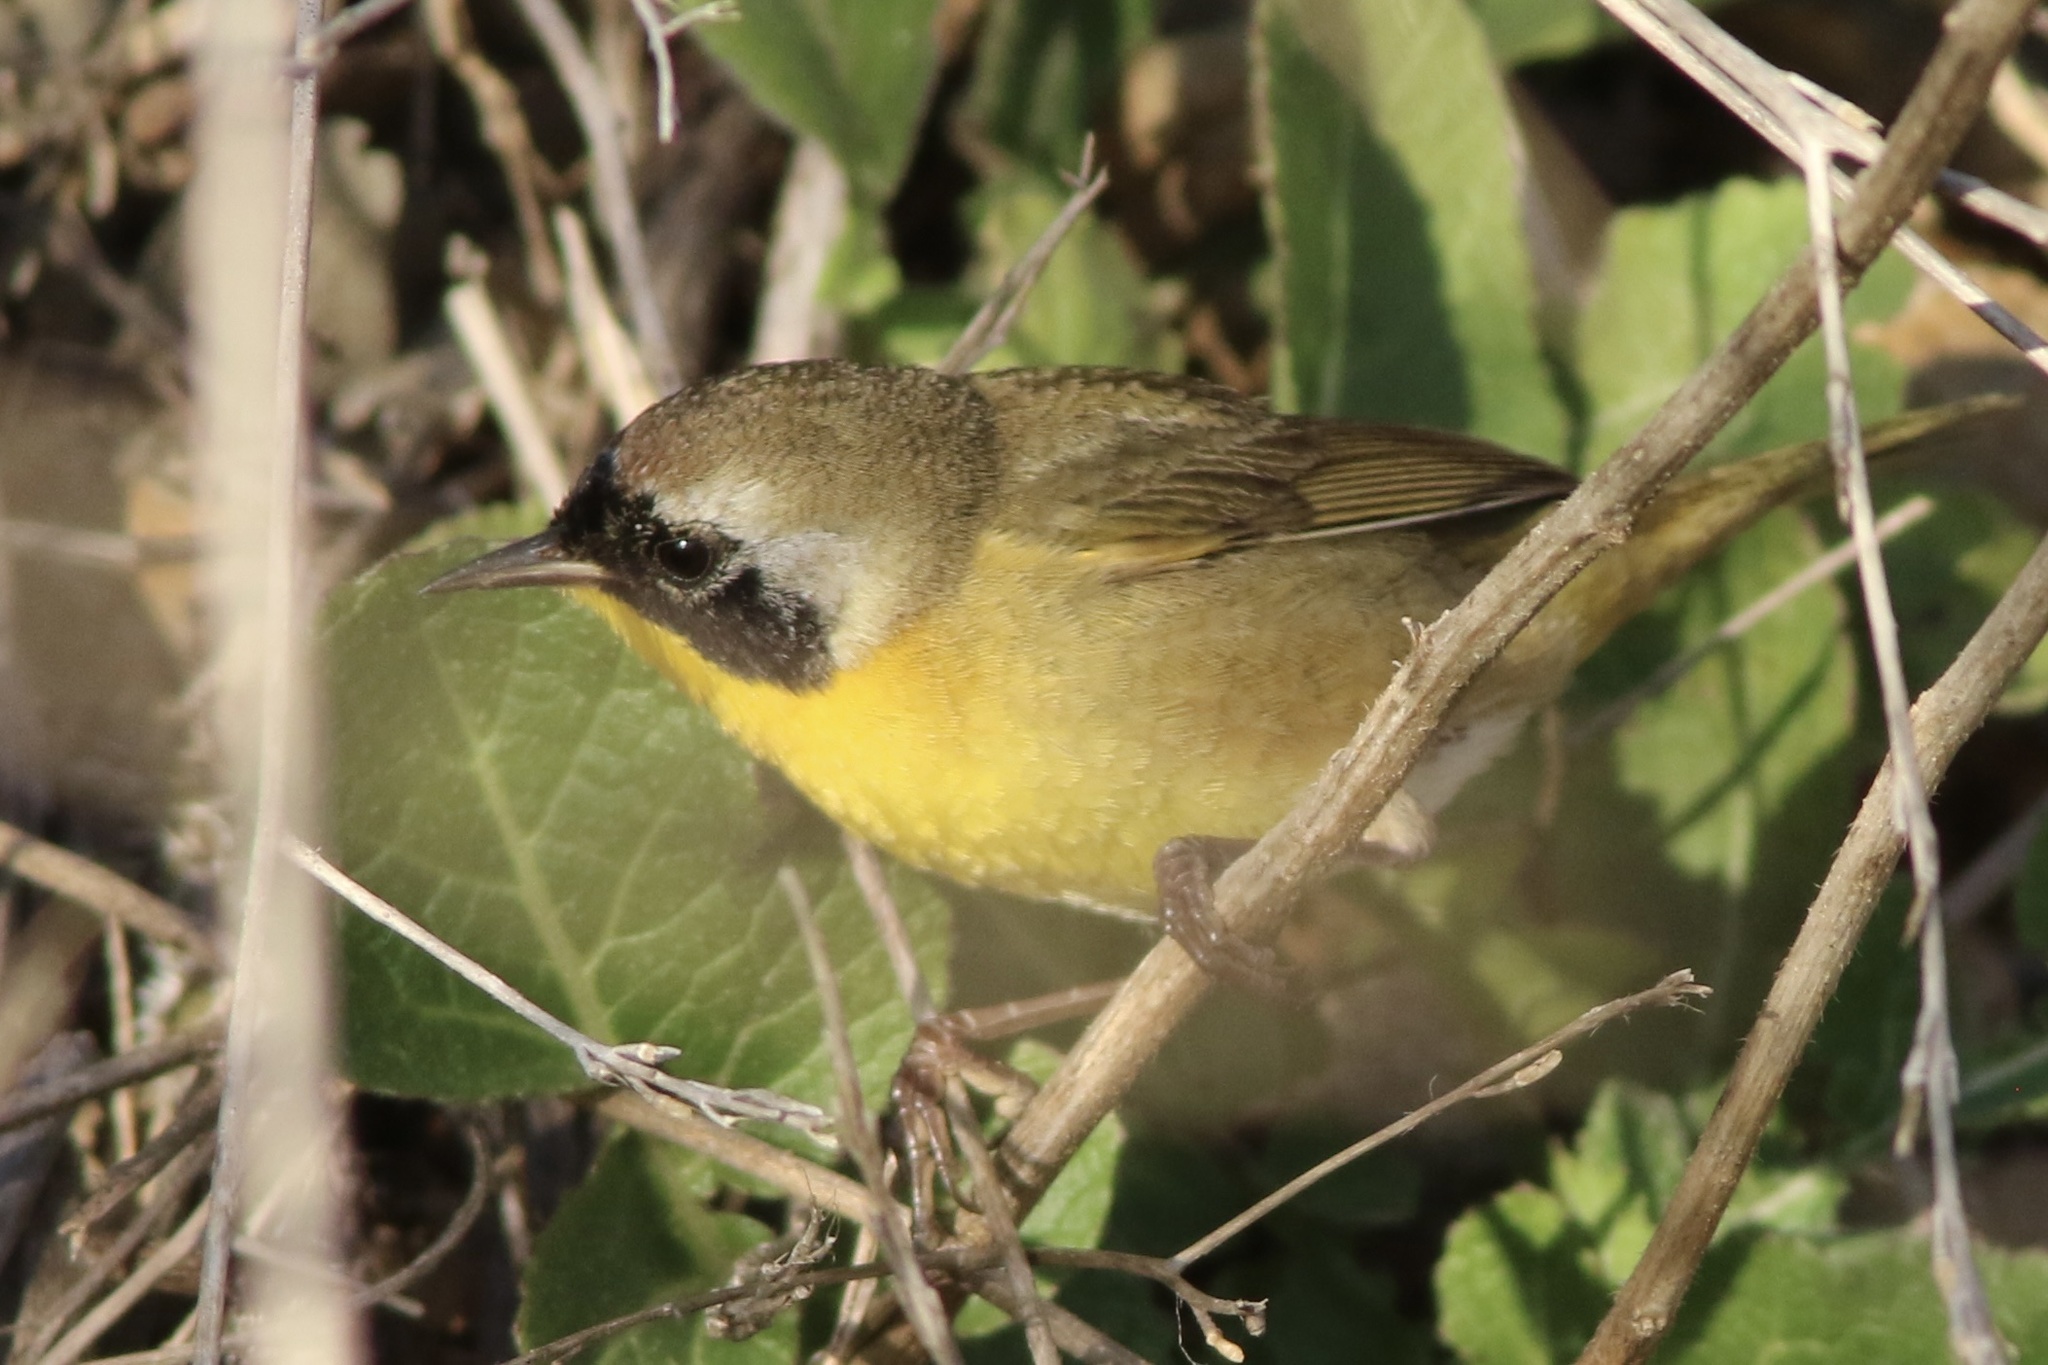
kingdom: Animalia
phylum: Chordata
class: Aves
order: Passeriformes
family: Parulidae
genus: Geothlypis
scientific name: Geothlypis trichas
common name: Common yellowthroat
